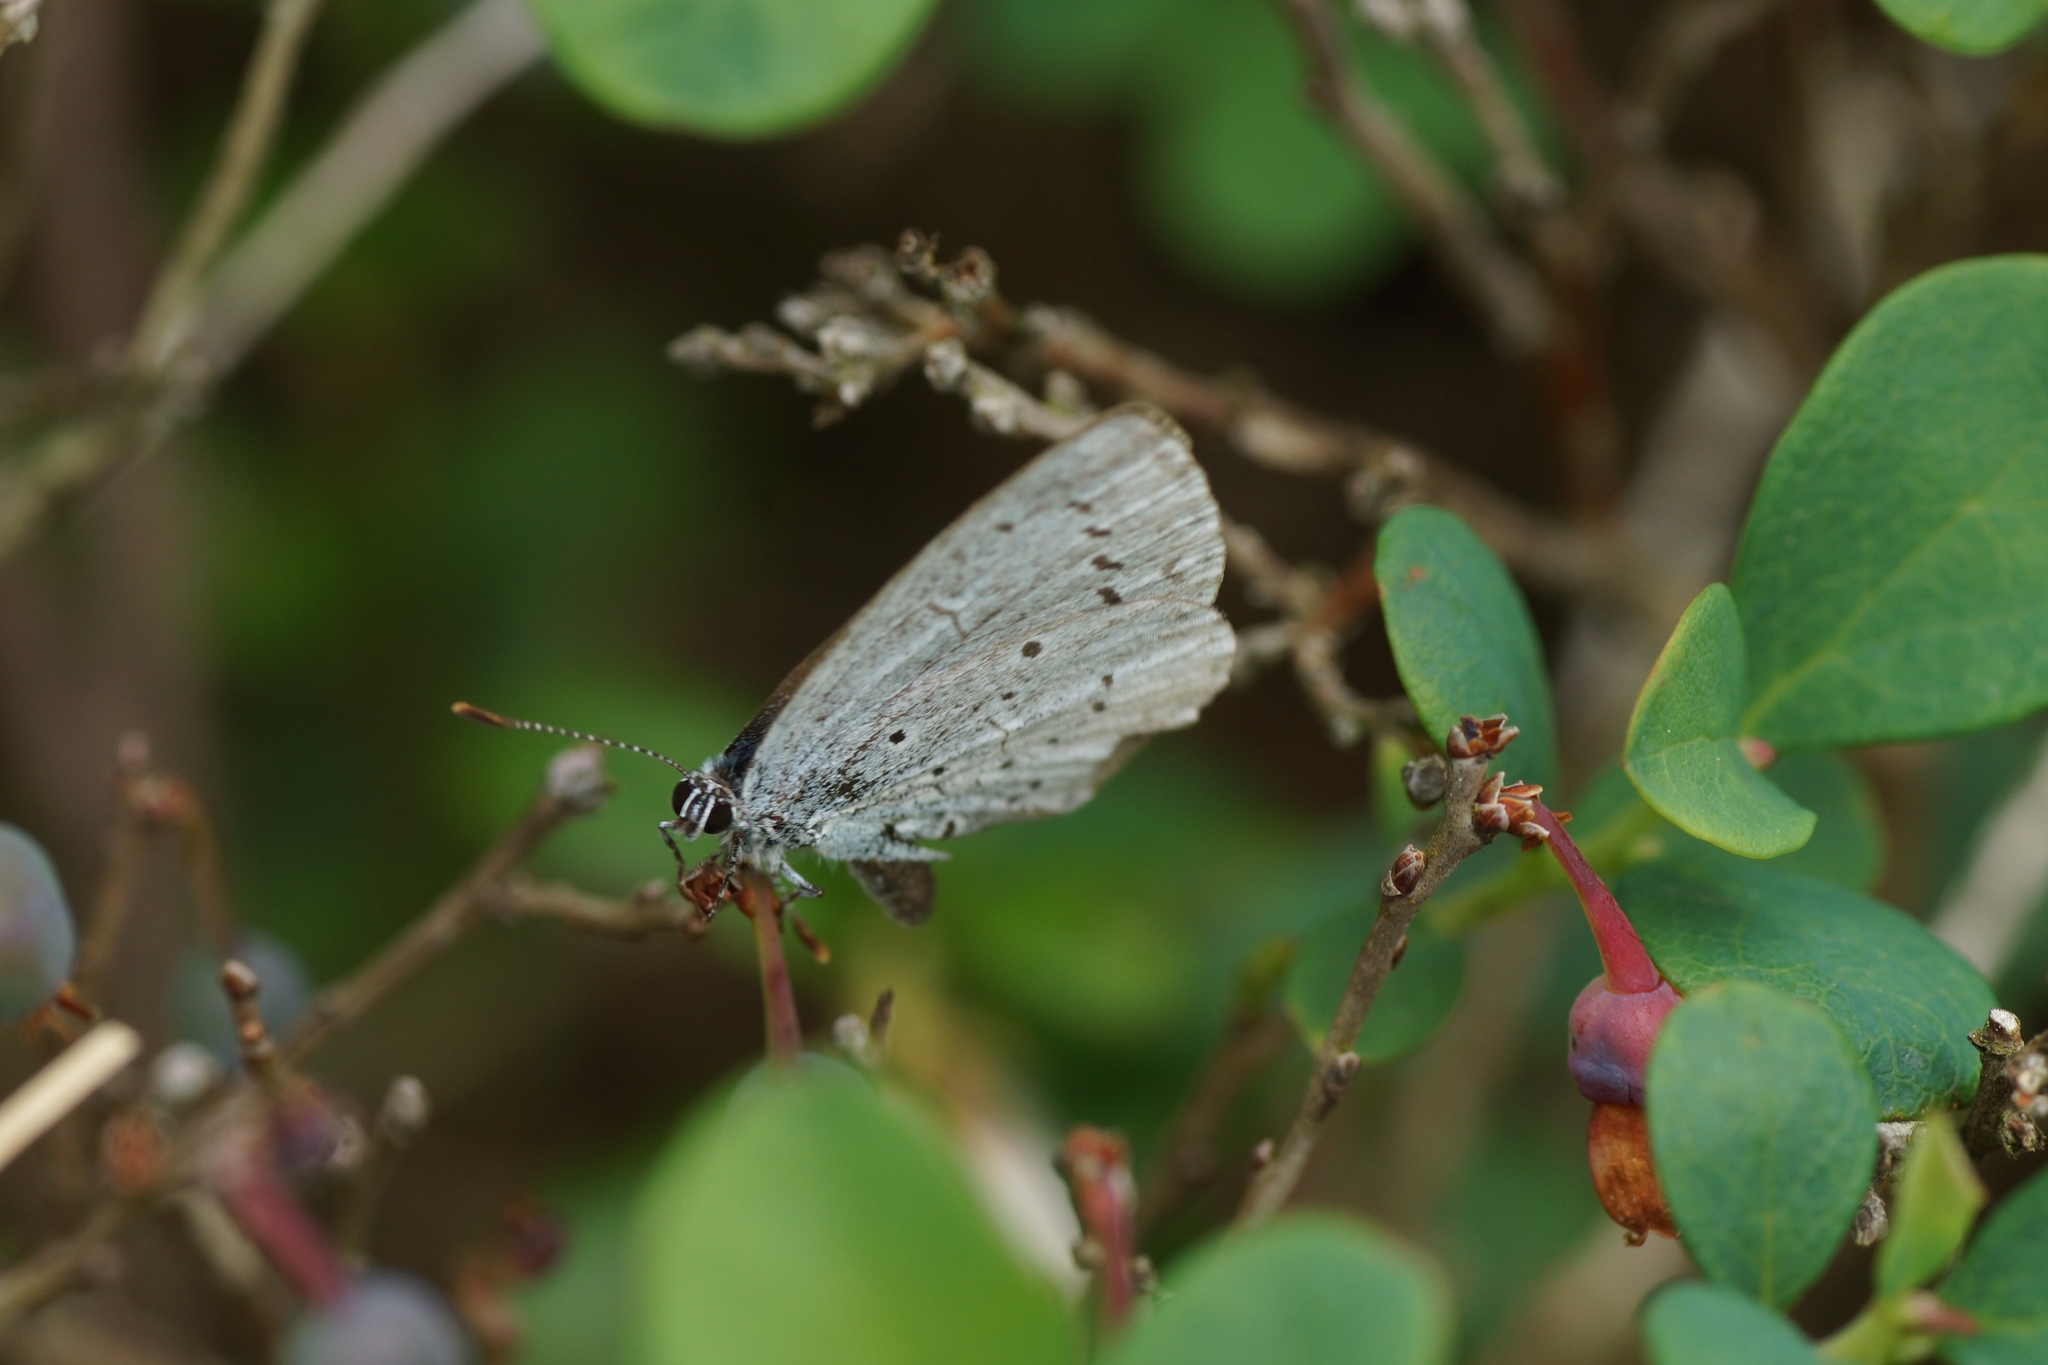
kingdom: Animalia
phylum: Arthropoda
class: Insecta
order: Lepidoptera
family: Lycaenidae
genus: Celastrina
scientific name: Celastrina argiolus
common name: Holly blue
